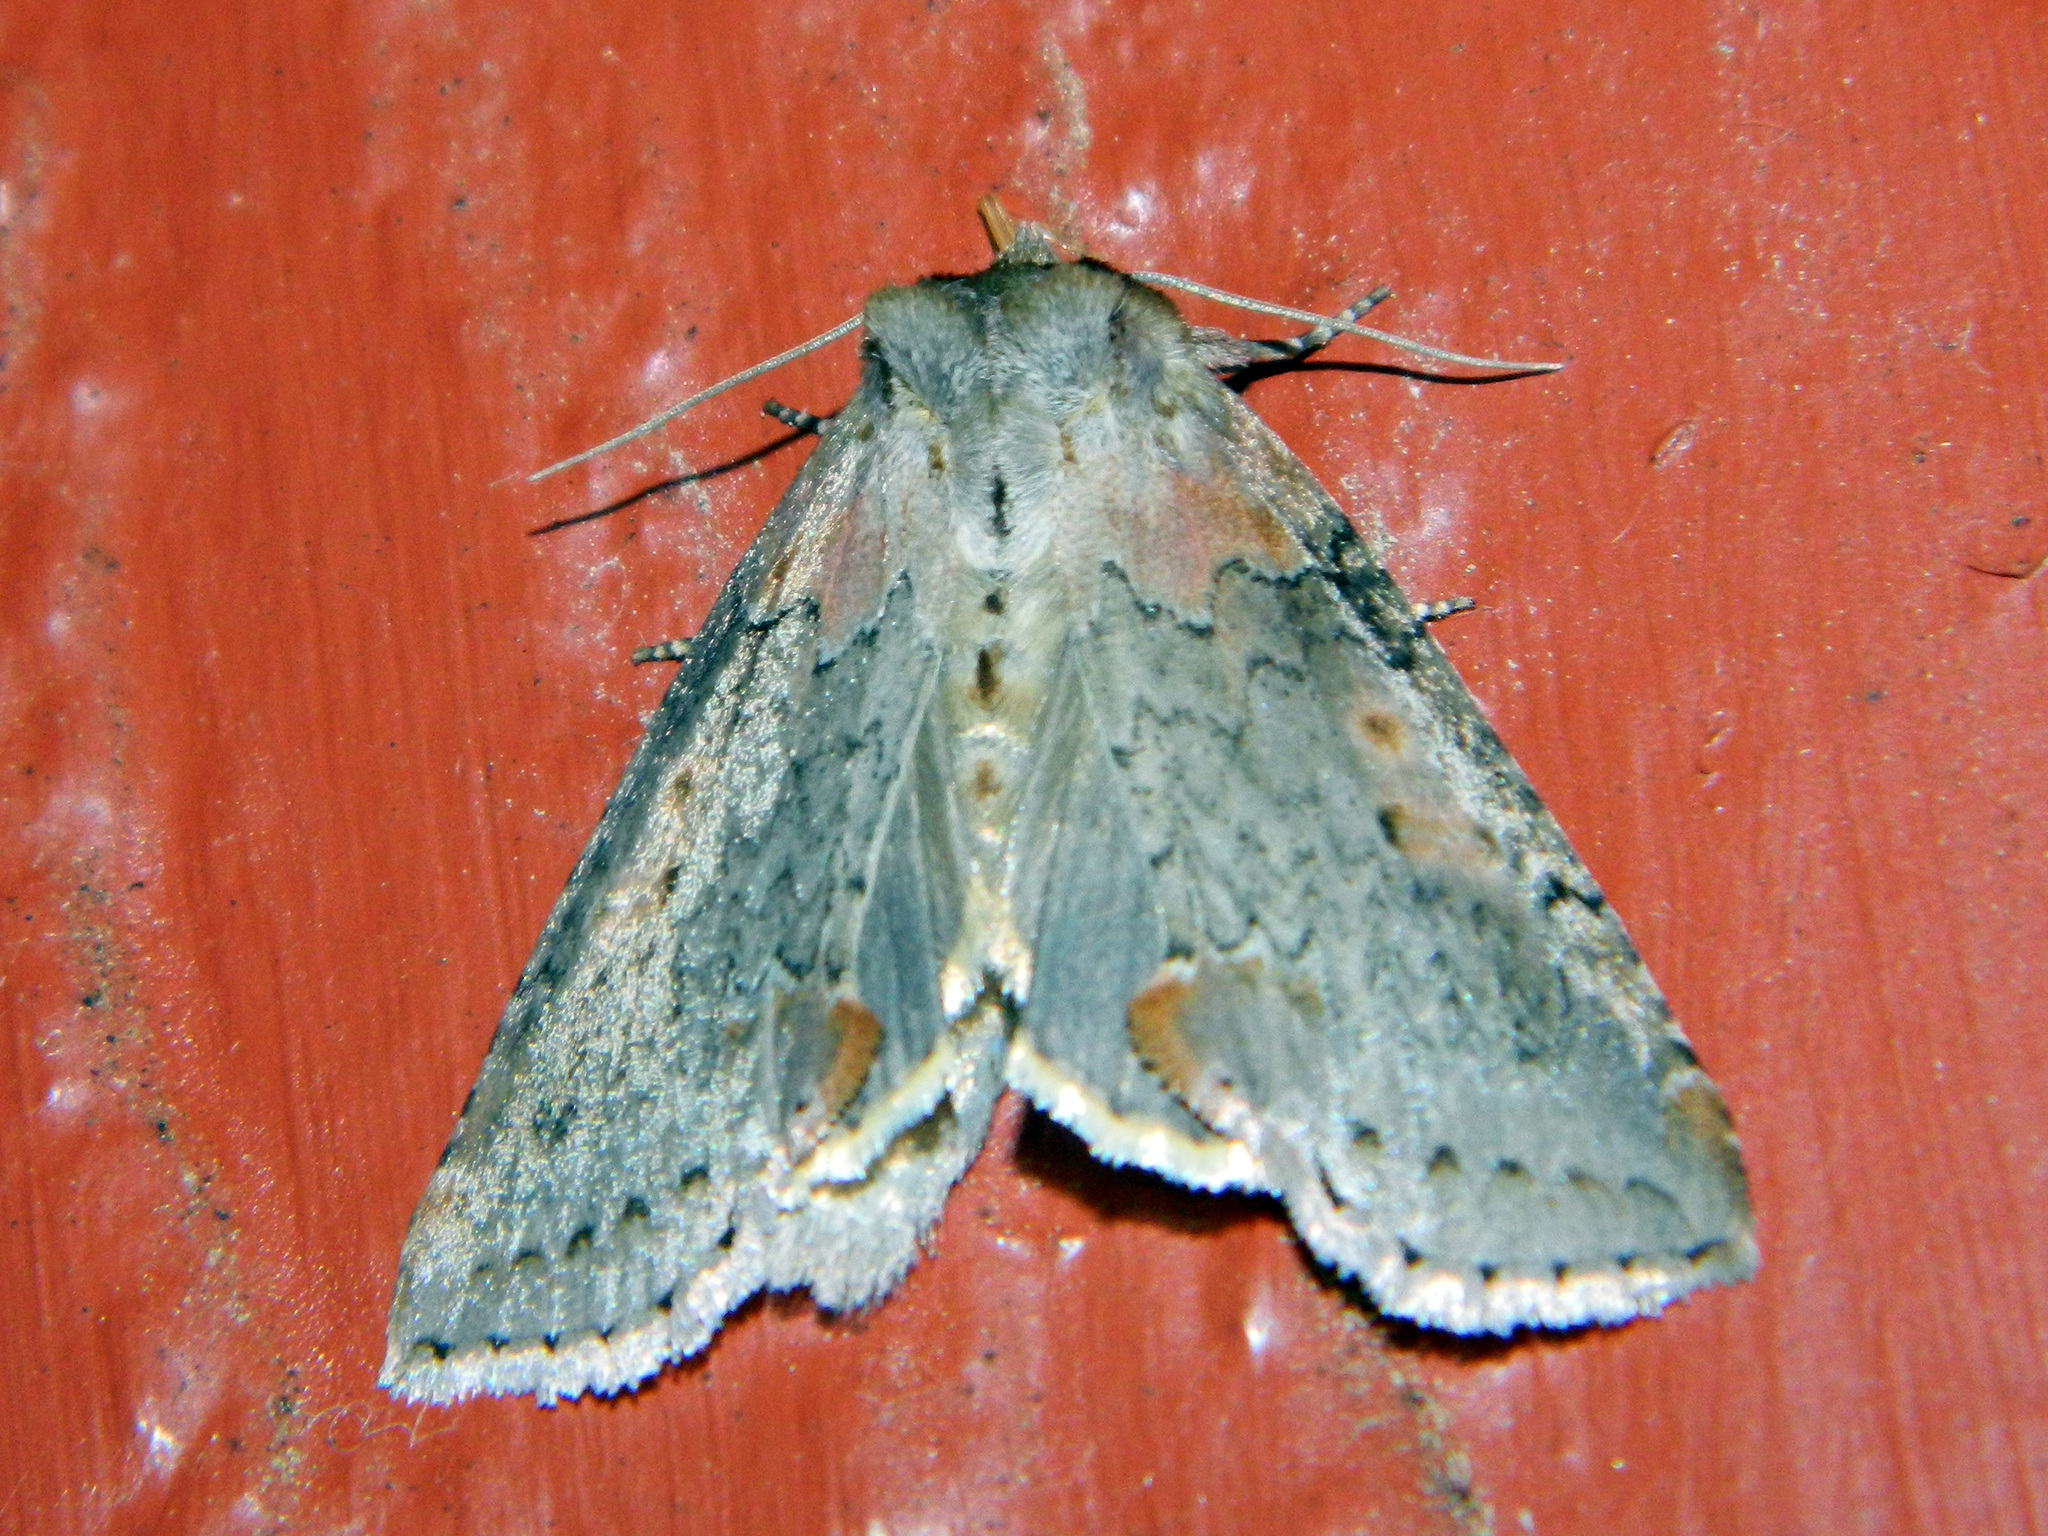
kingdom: Animalia
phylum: Arthropoda
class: Insecta
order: Lepidoptera
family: Drepanidae
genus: Pseudothyatira
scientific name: Pseudothyatira cymatophoroides
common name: Tufted thyatirid moth
